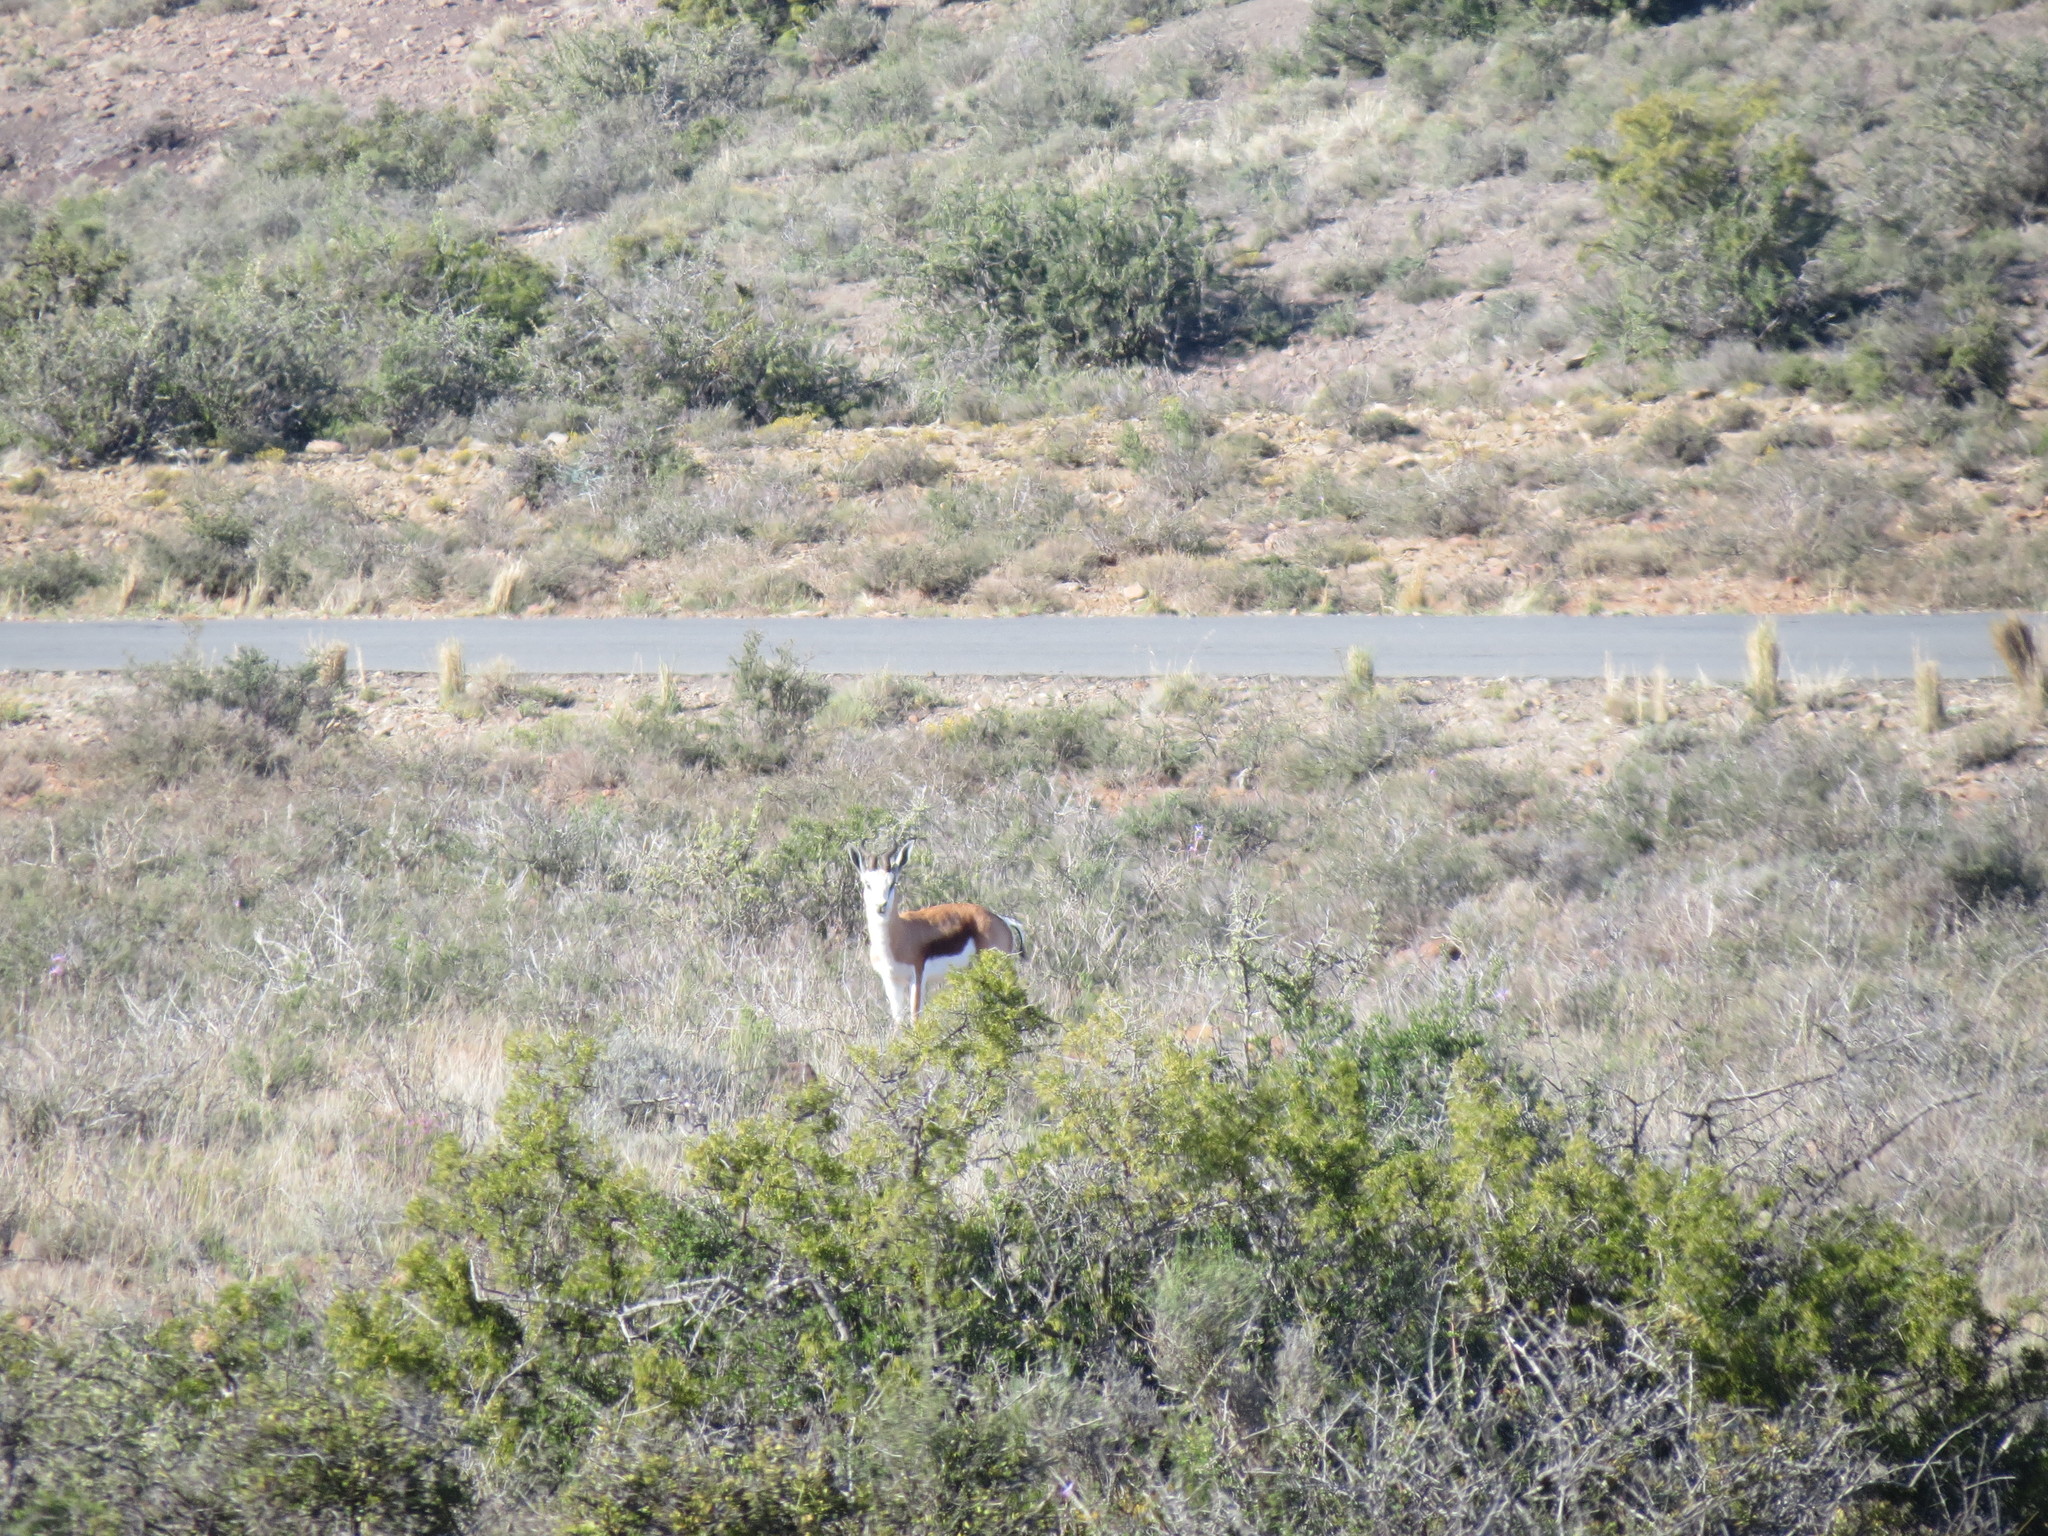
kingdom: Animalia
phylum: Chordata
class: Mammalia
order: Artiodactyla
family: Bovidae
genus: Antidorcas
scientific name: Antidorcas marsupialis
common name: Springbok
